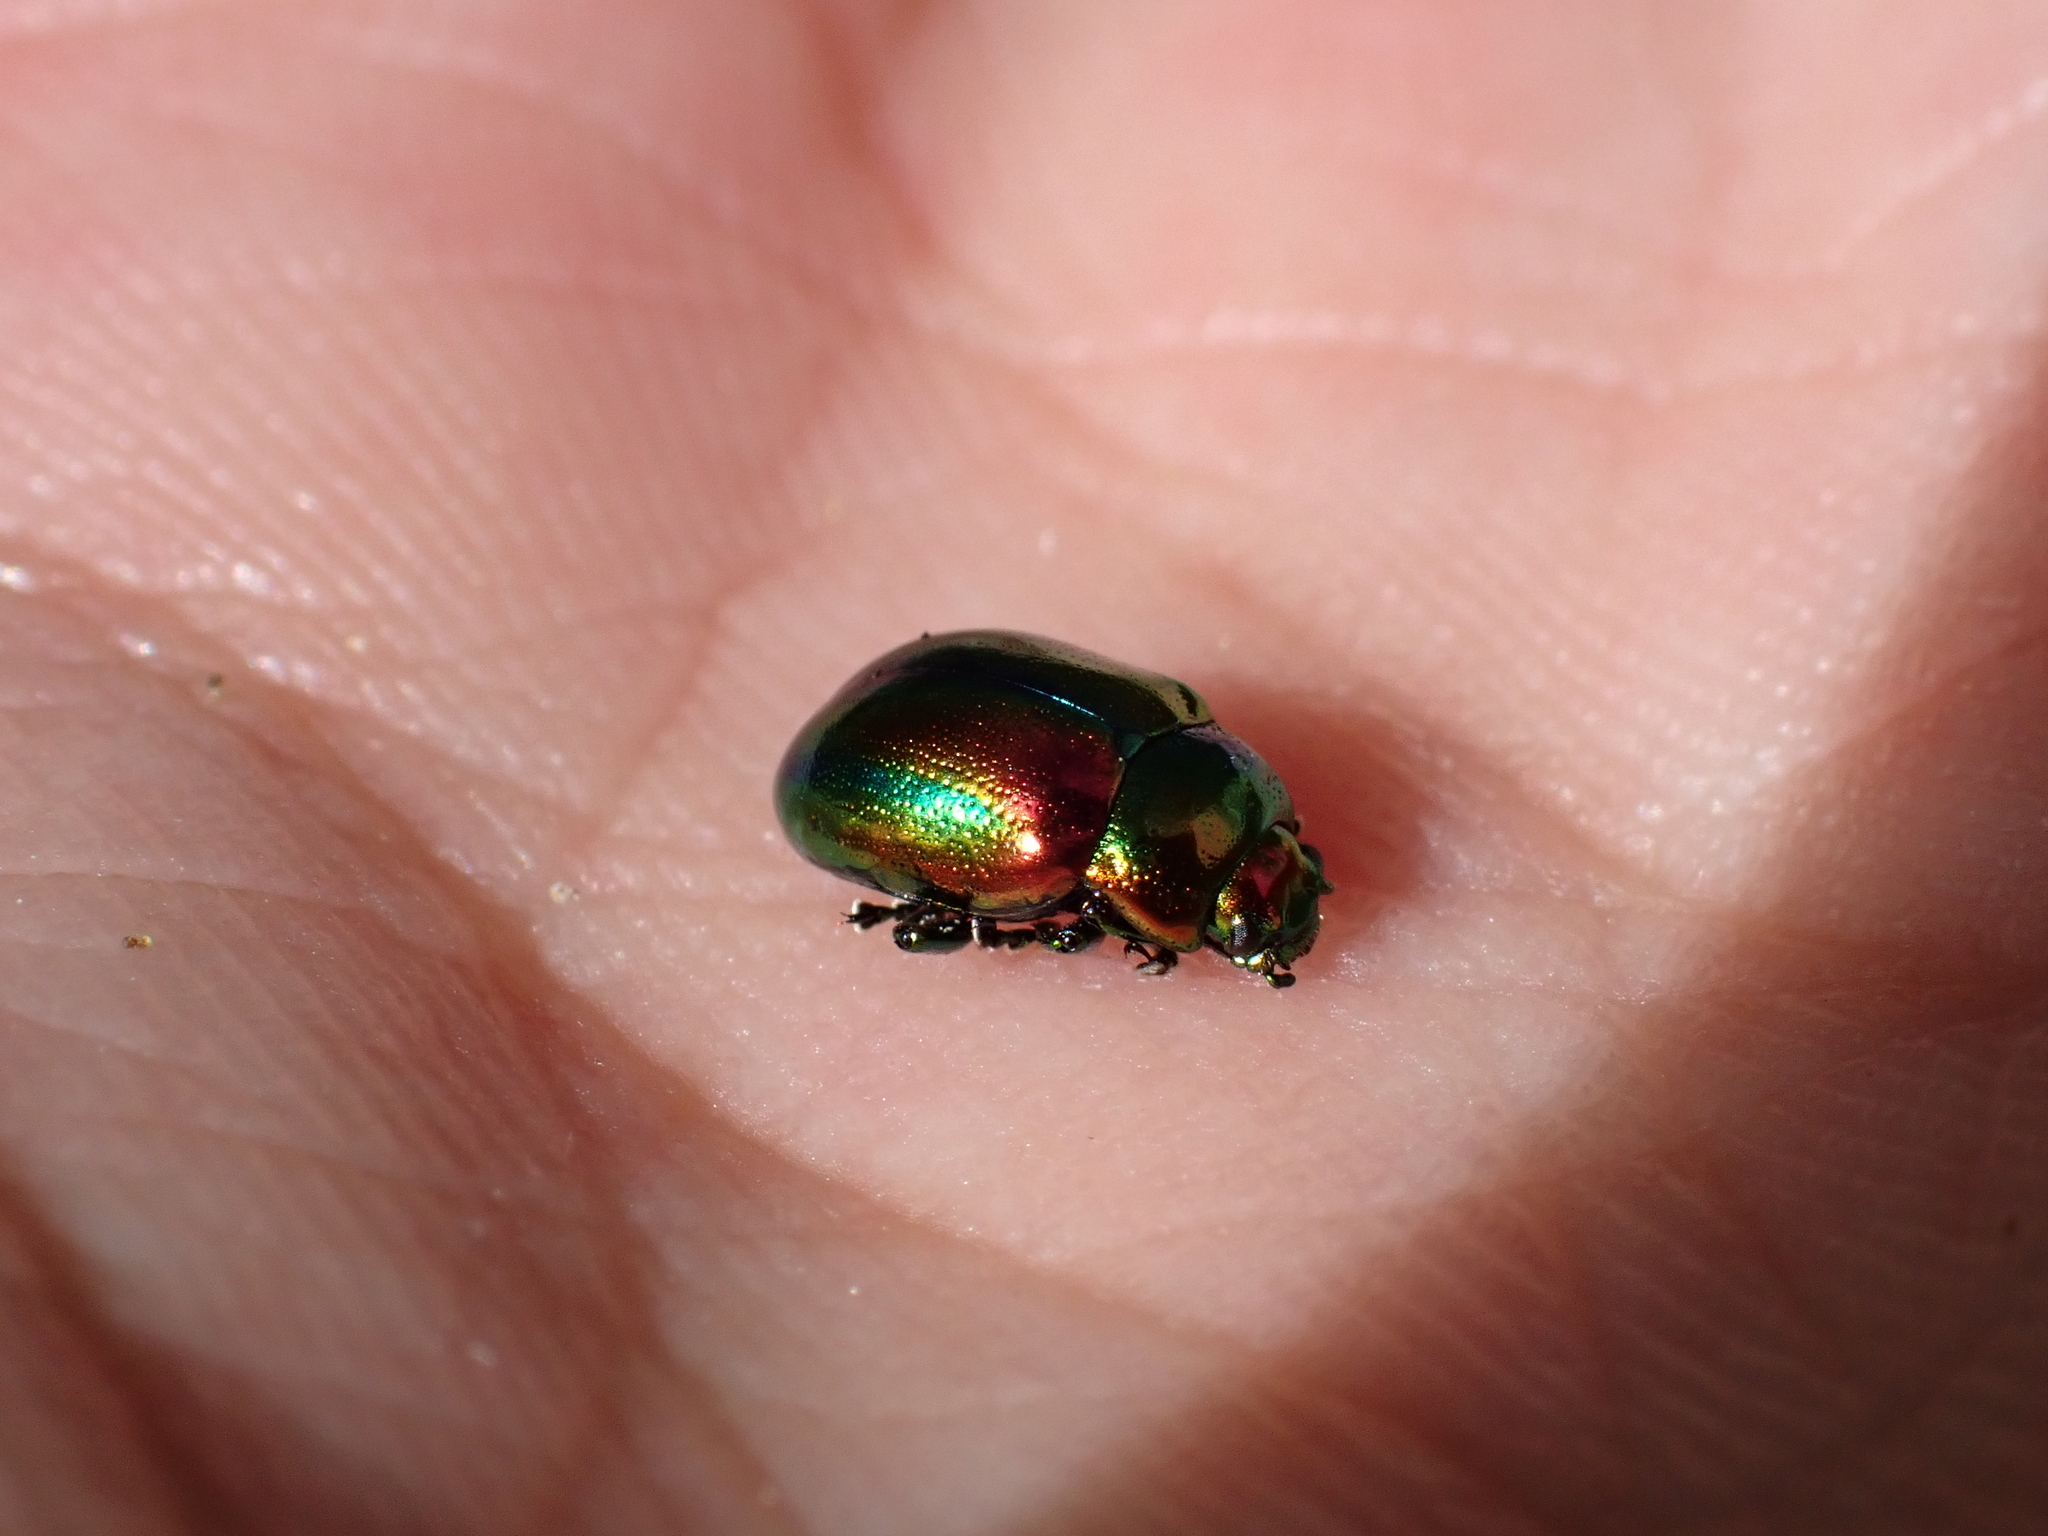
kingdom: Animalia
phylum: Arthropoda
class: Insecta
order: Coleoptera
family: Chrysomelidae
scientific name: Chrysomelidae
